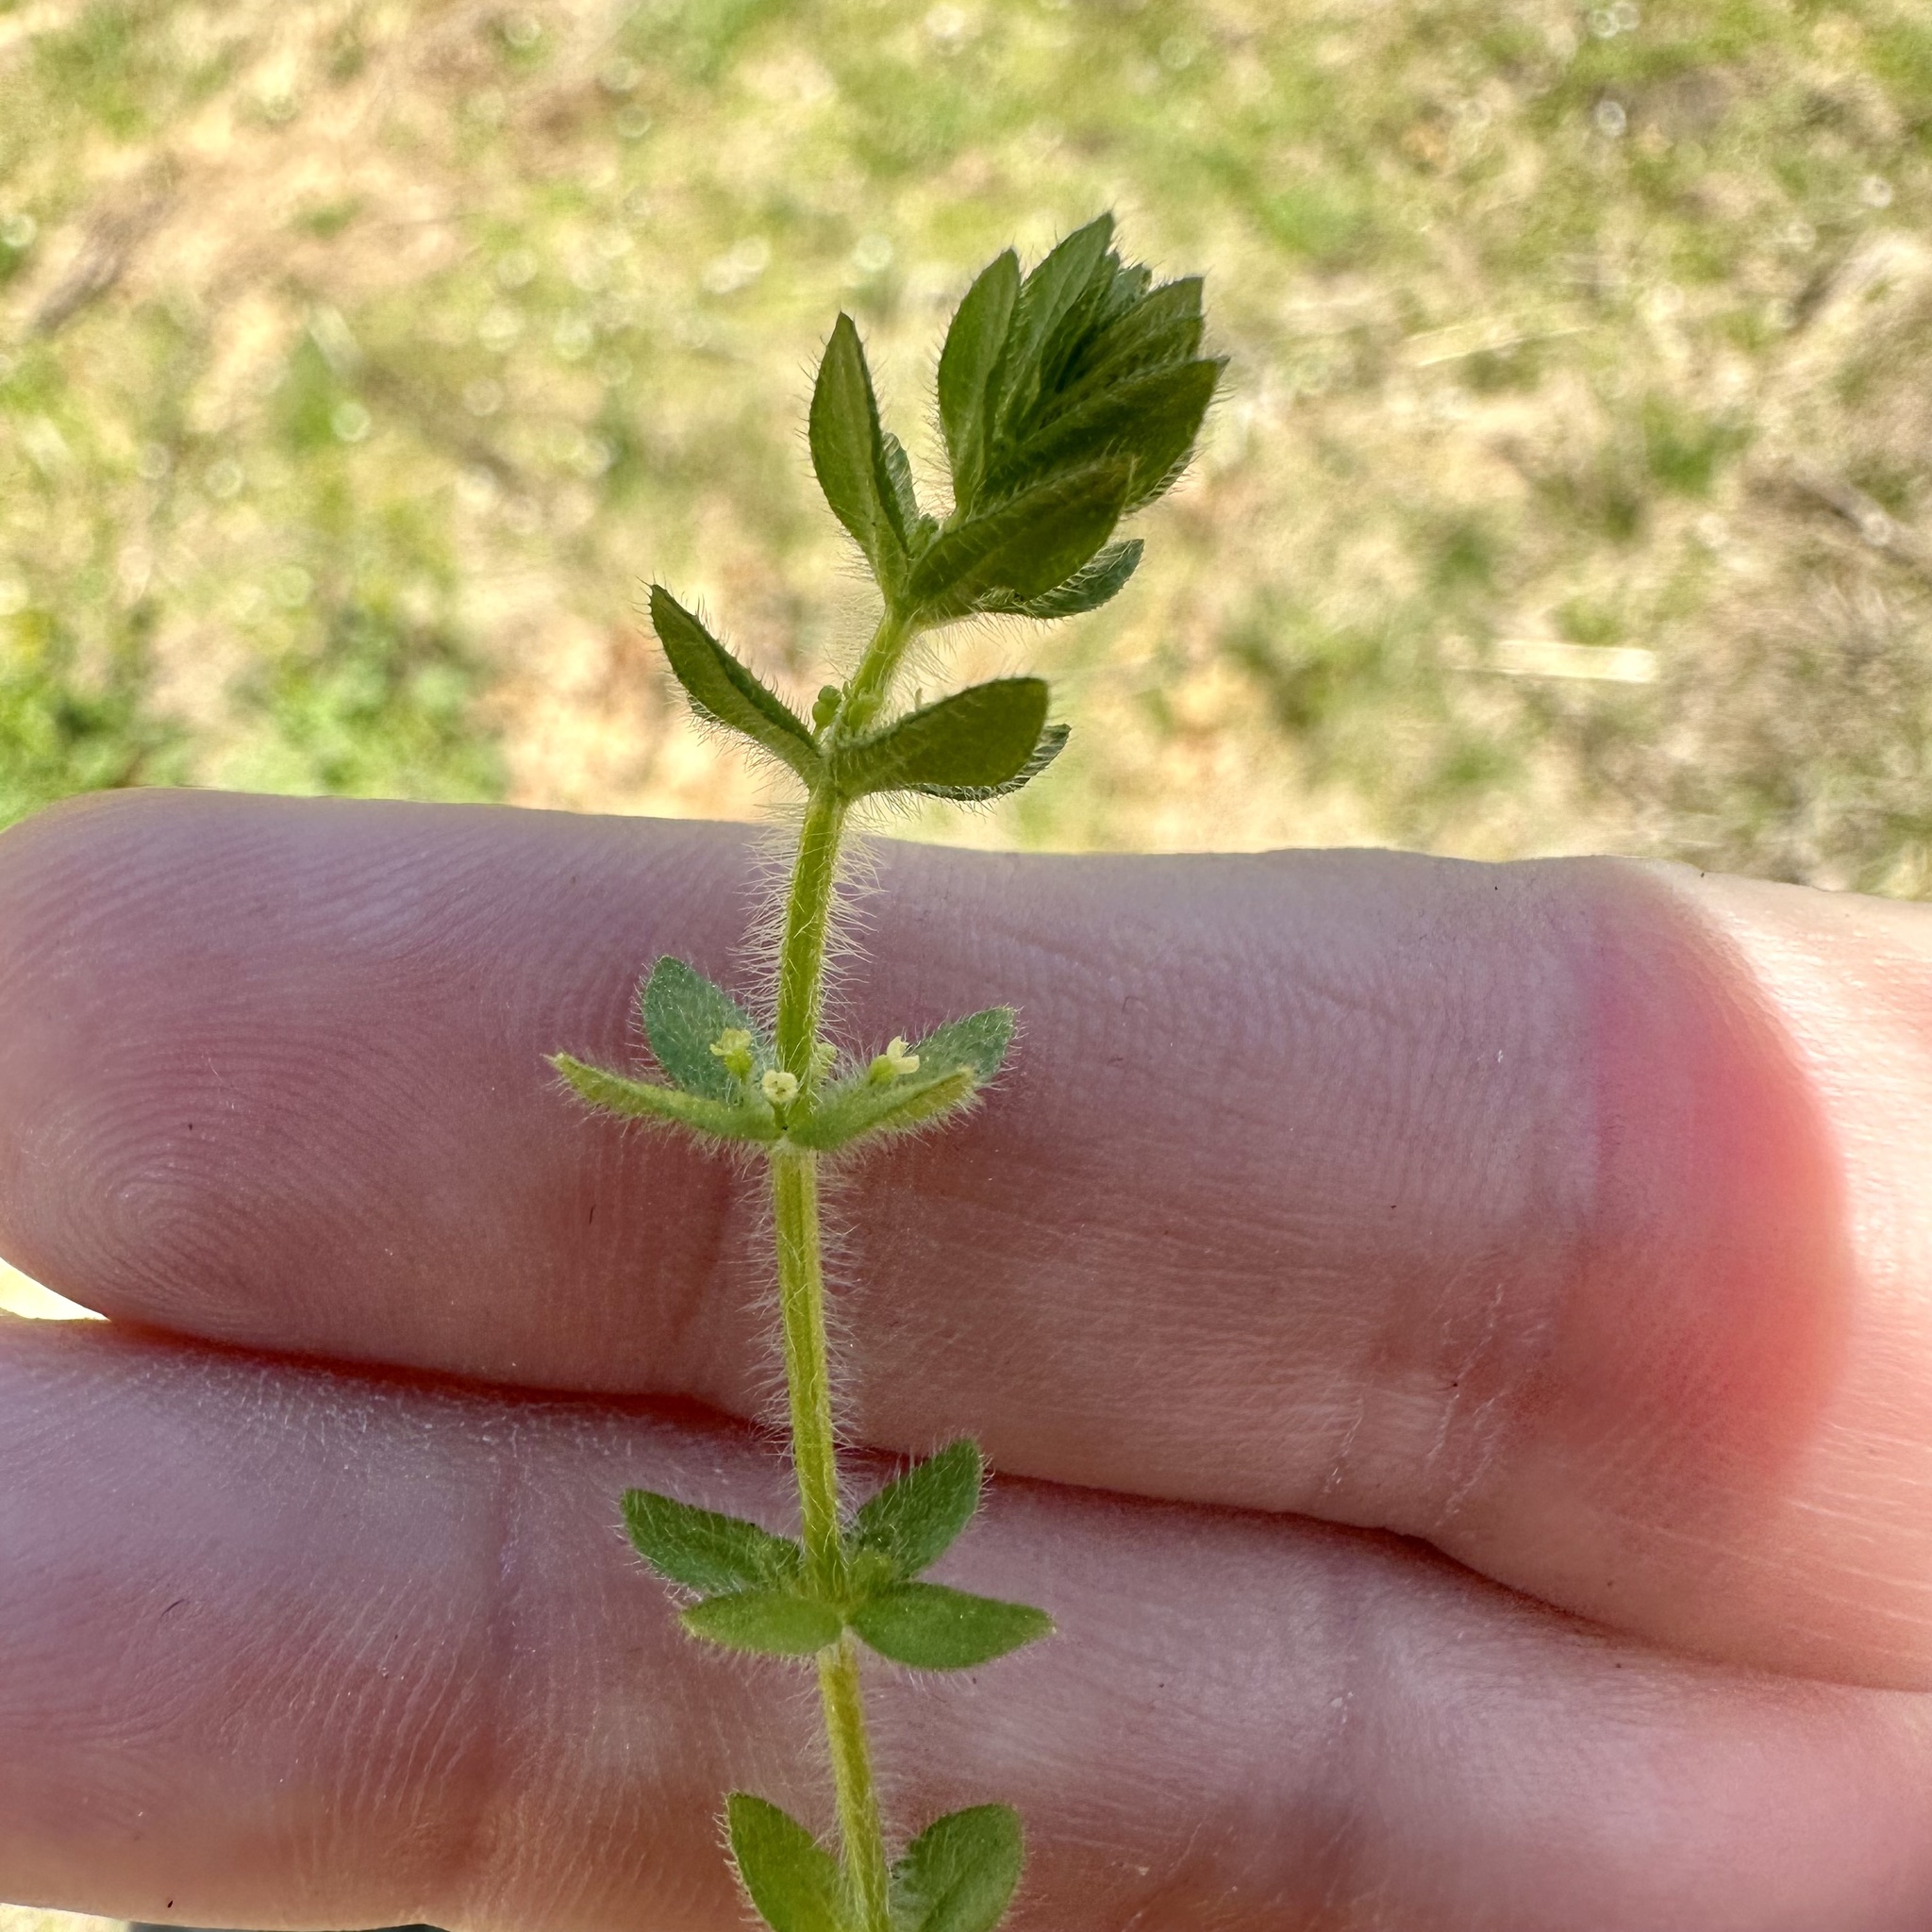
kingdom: Plantae
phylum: Tracheophyta
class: Magnoliopsida
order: Gentianales
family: Rubiaceae
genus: Cruciata
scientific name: Cruciata pedemontana
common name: Piedmont bedstraw
